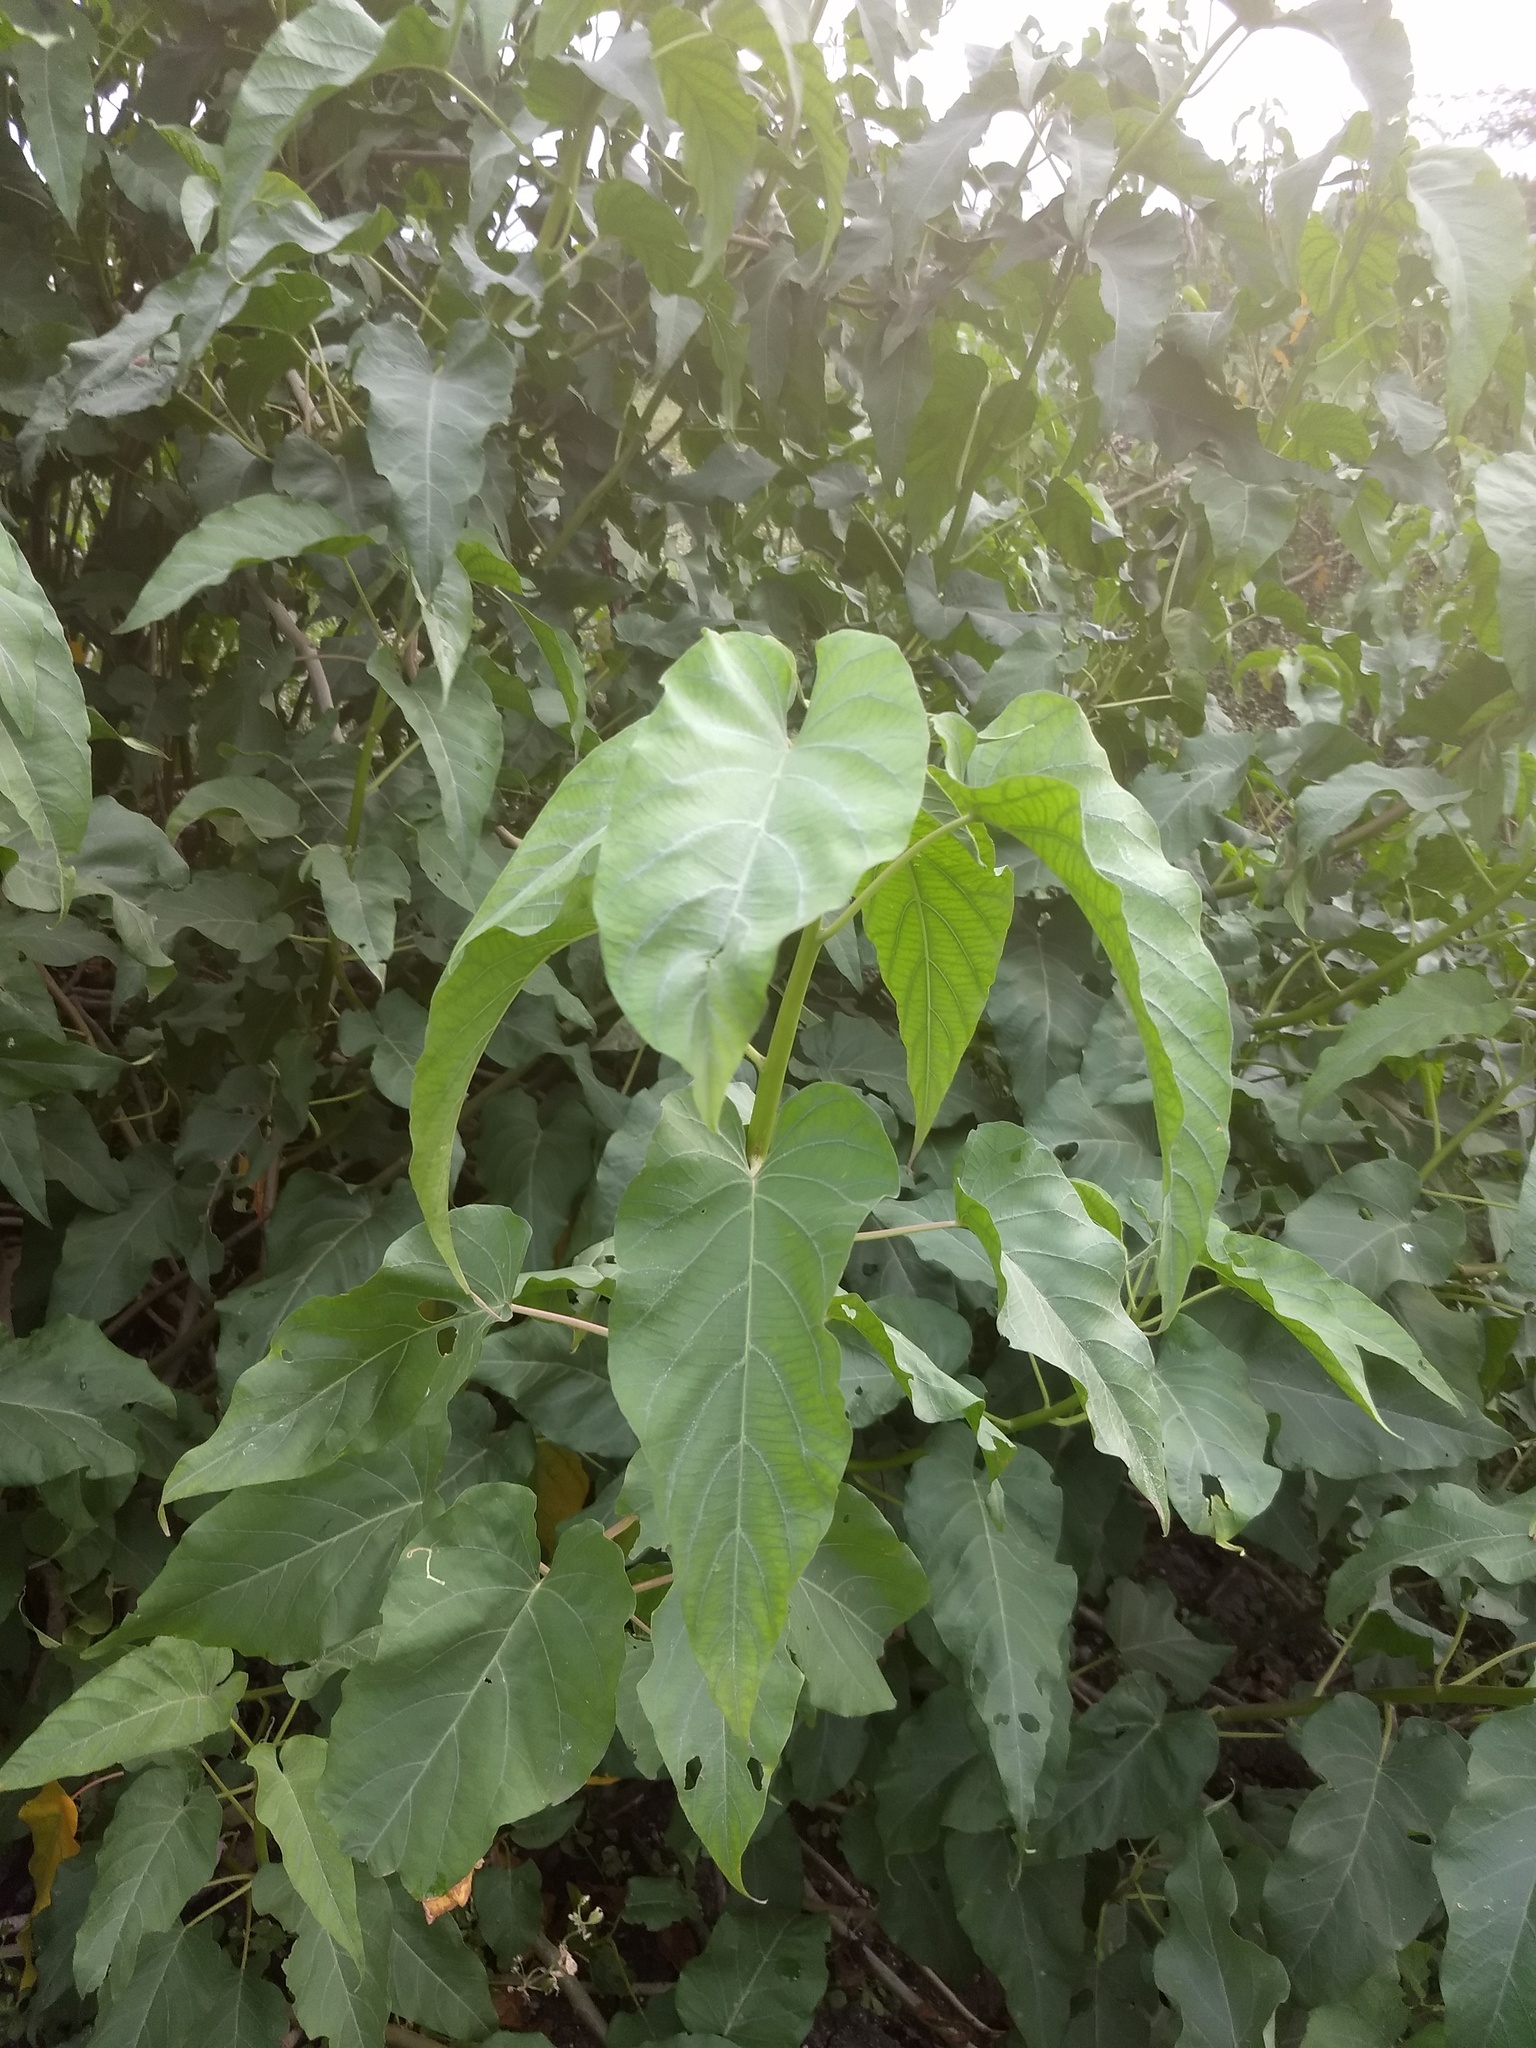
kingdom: Plantae
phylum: Tracheophyta
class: Magnoliopsida
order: Solanales
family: Convolvulaceae
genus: Ipomoea
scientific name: Ipomoea carnea
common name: Morning-glory
